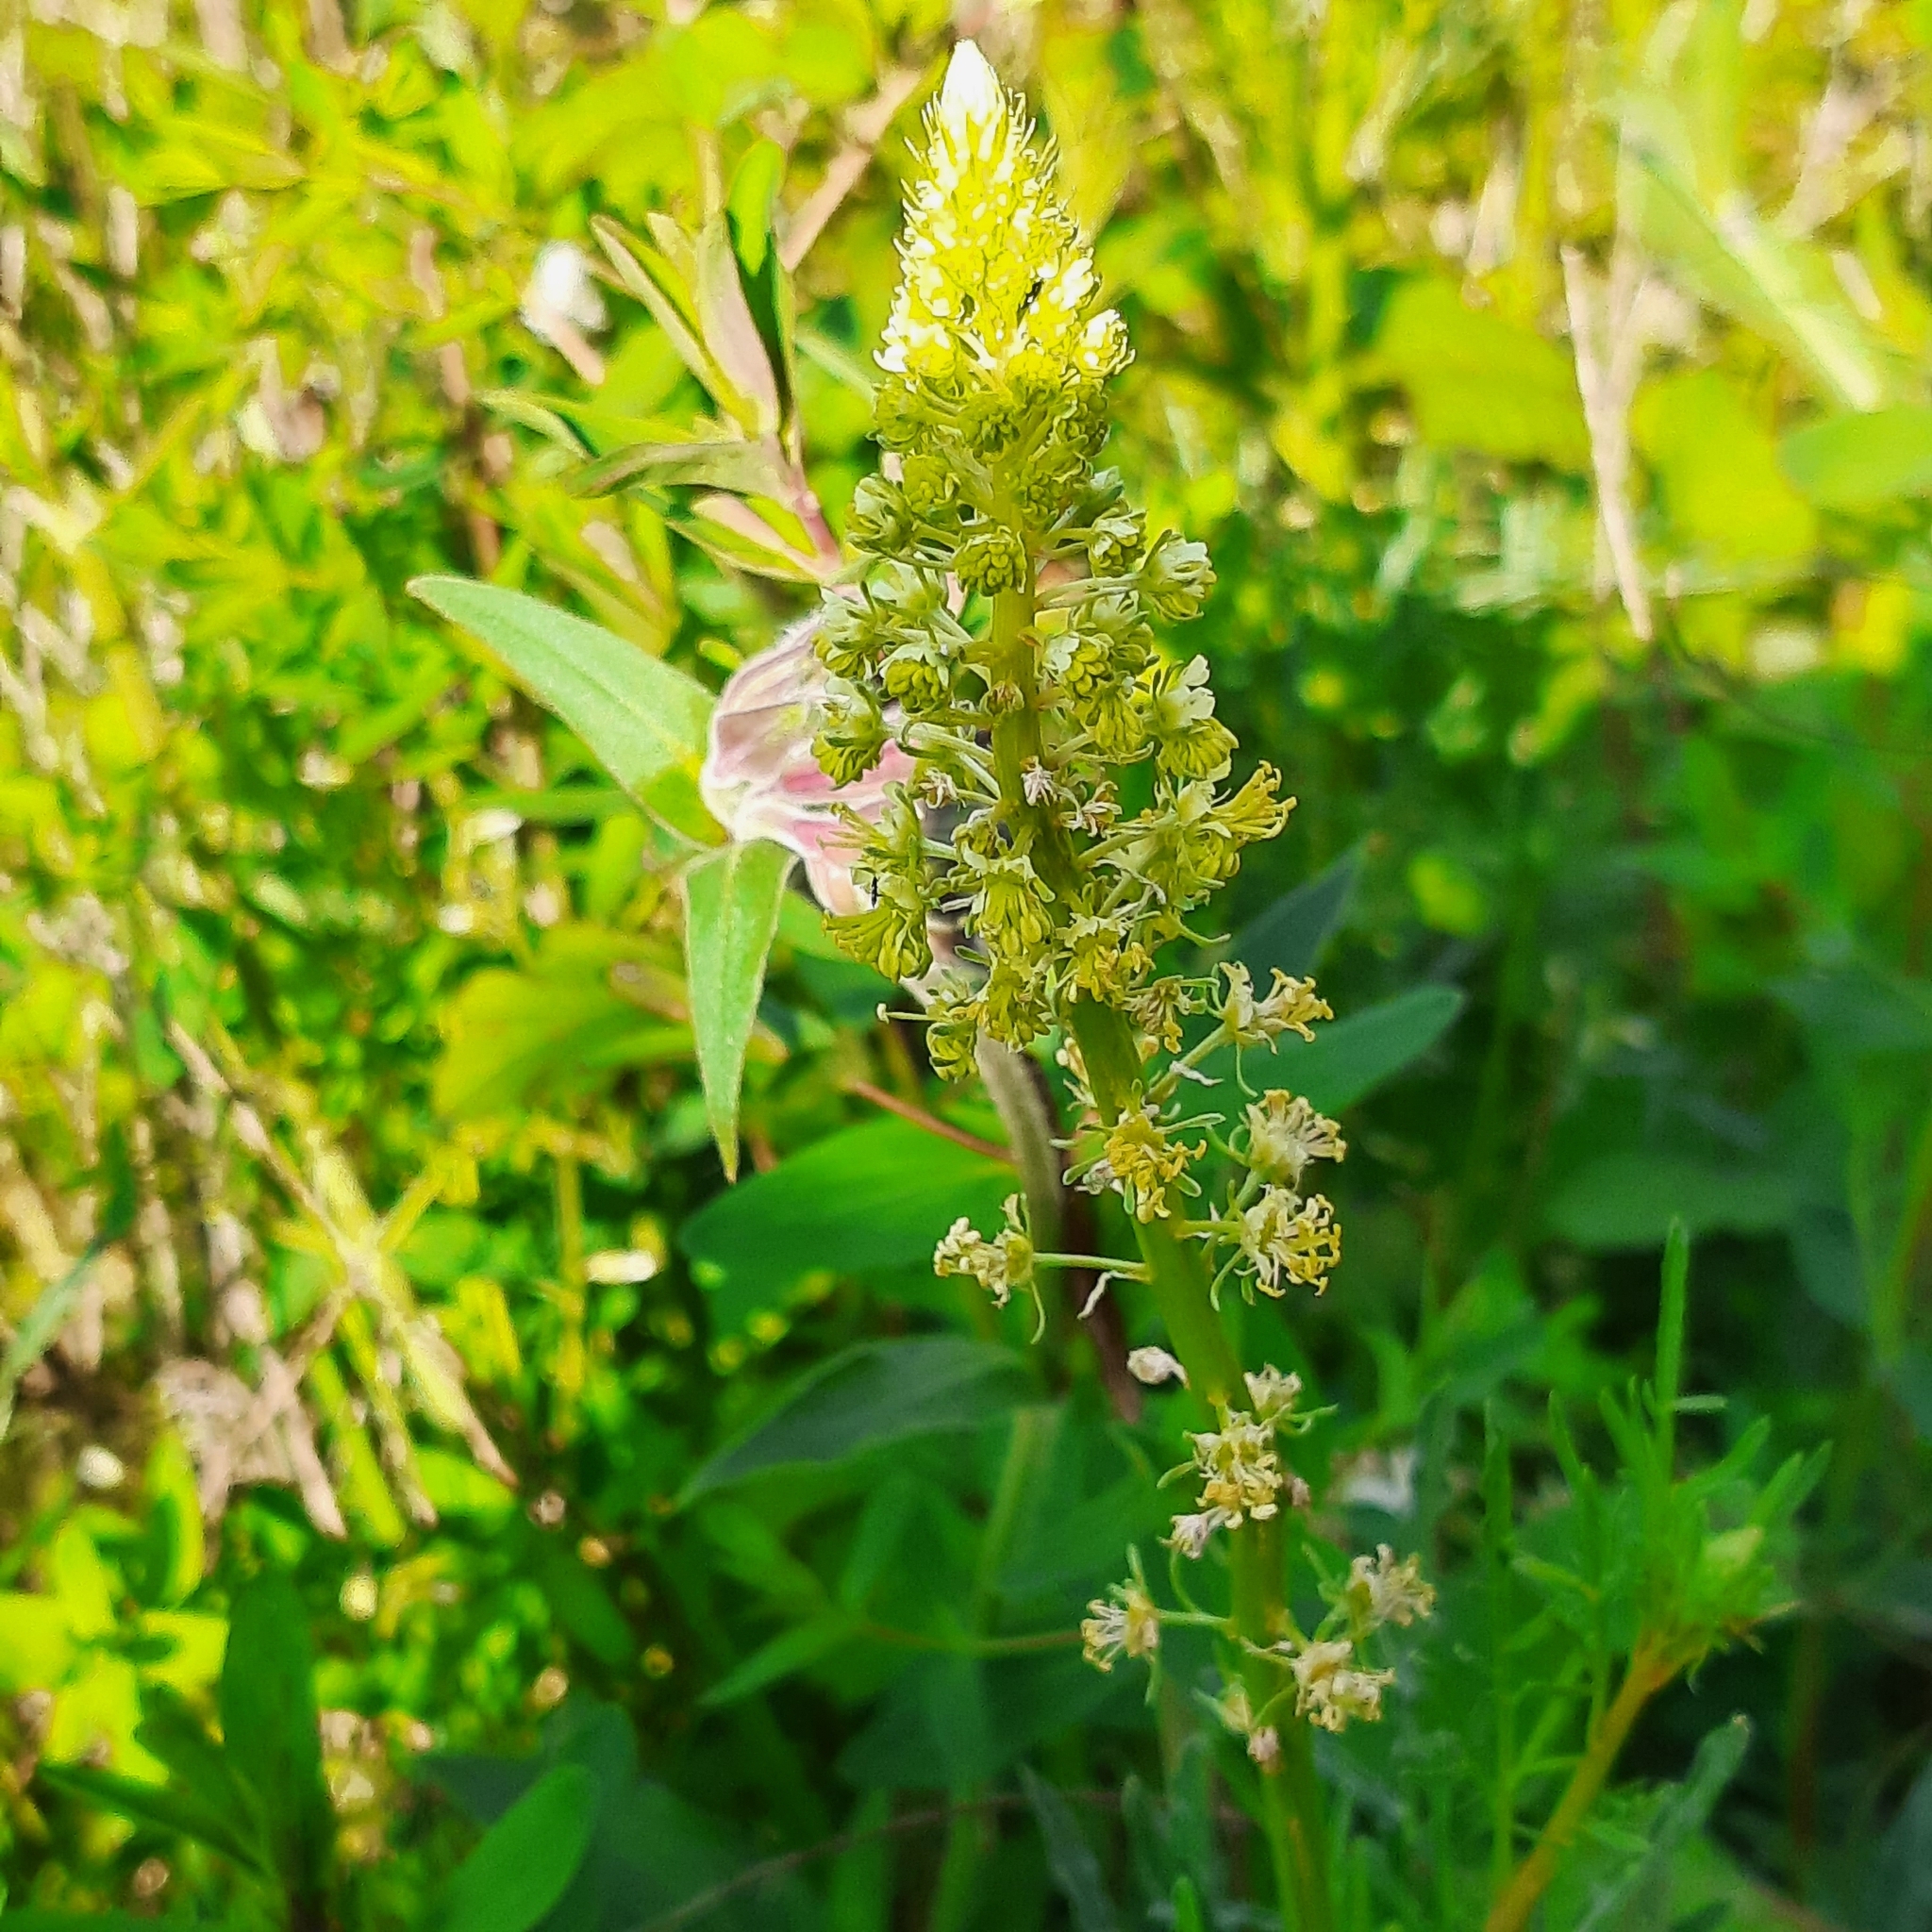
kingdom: Plantae
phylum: Tracheophyta
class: Magnoliopsida
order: Brassicales
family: Resedaceae
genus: Reseda
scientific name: Reseda lutea
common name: Wild mignonette
